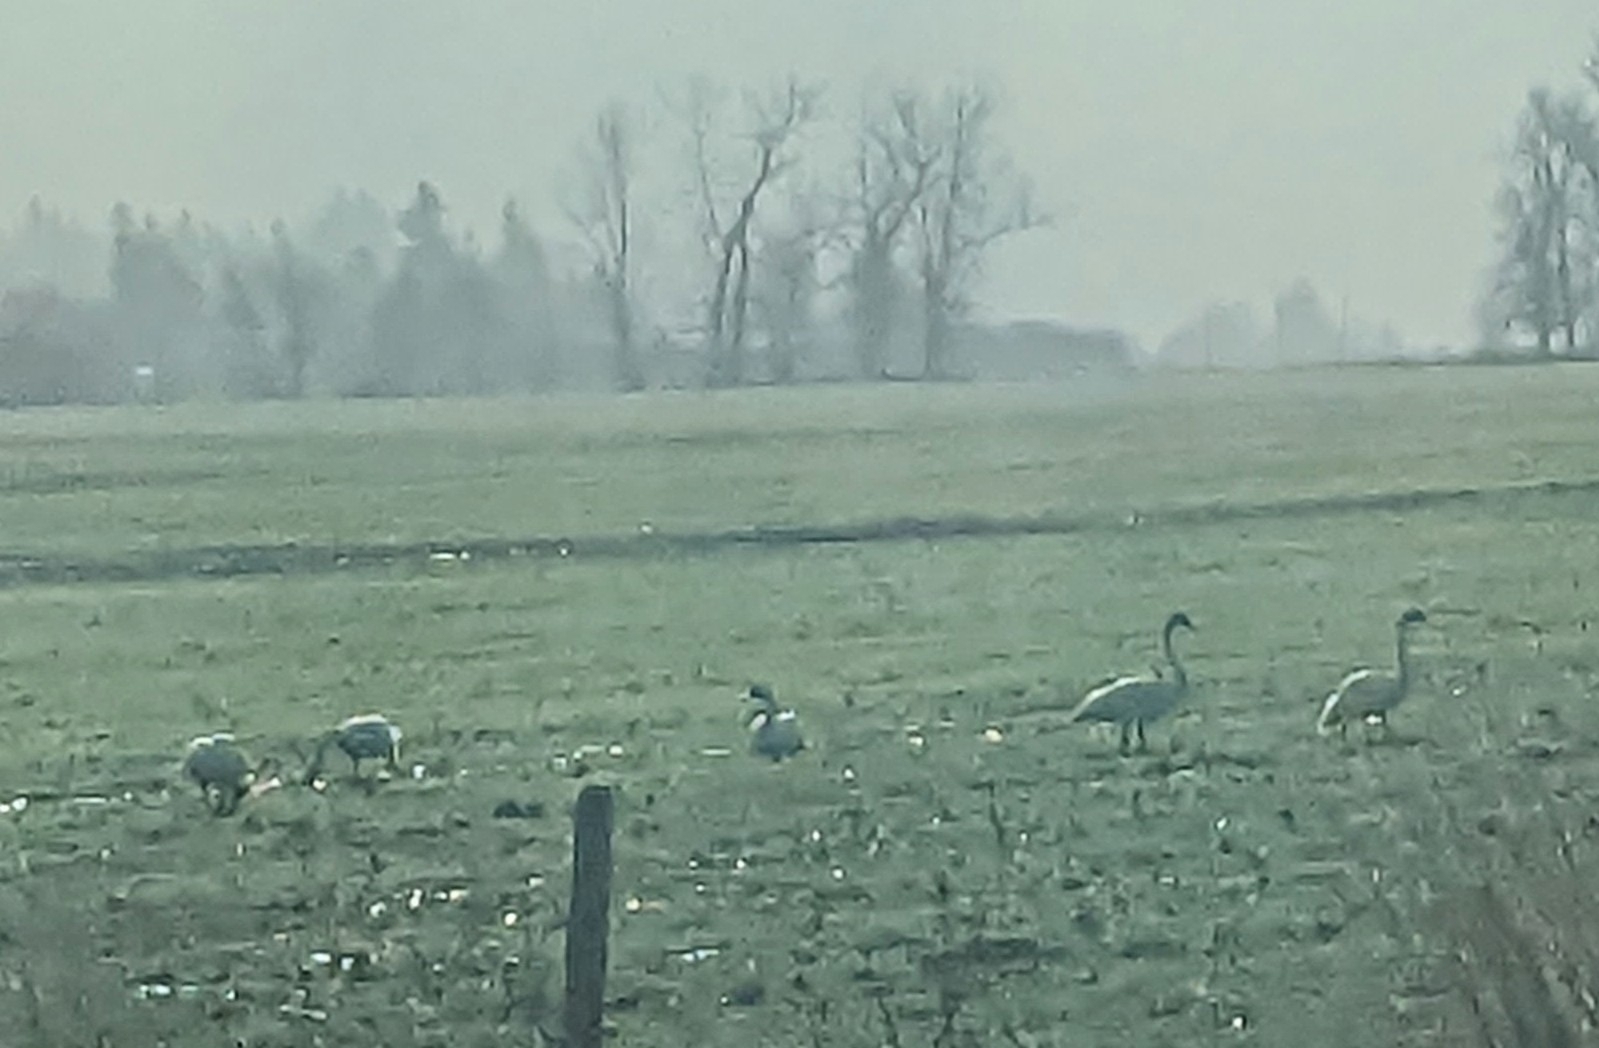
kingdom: Animalia
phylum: Chordata
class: Aves
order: Anseriformes
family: Anatidae
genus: Cygnus
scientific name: Cygnus buccinator
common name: Trumpeter swan
